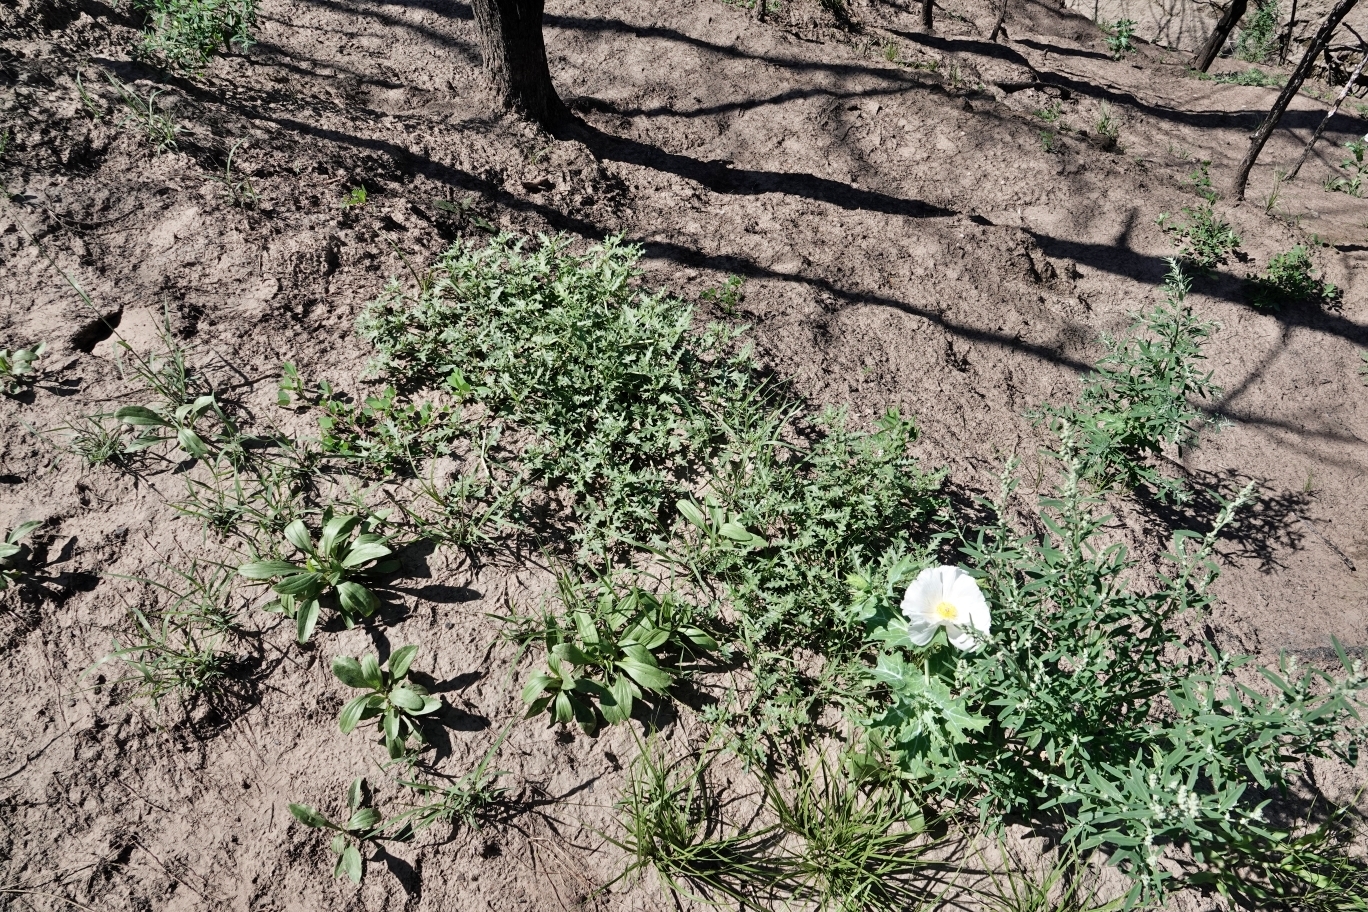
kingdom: Plantae
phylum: Tracheophyta
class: Magnoliopsida
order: Solanales
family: Solanaceae
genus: Solanum
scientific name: Solanum triflorum
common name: Small nightshade
